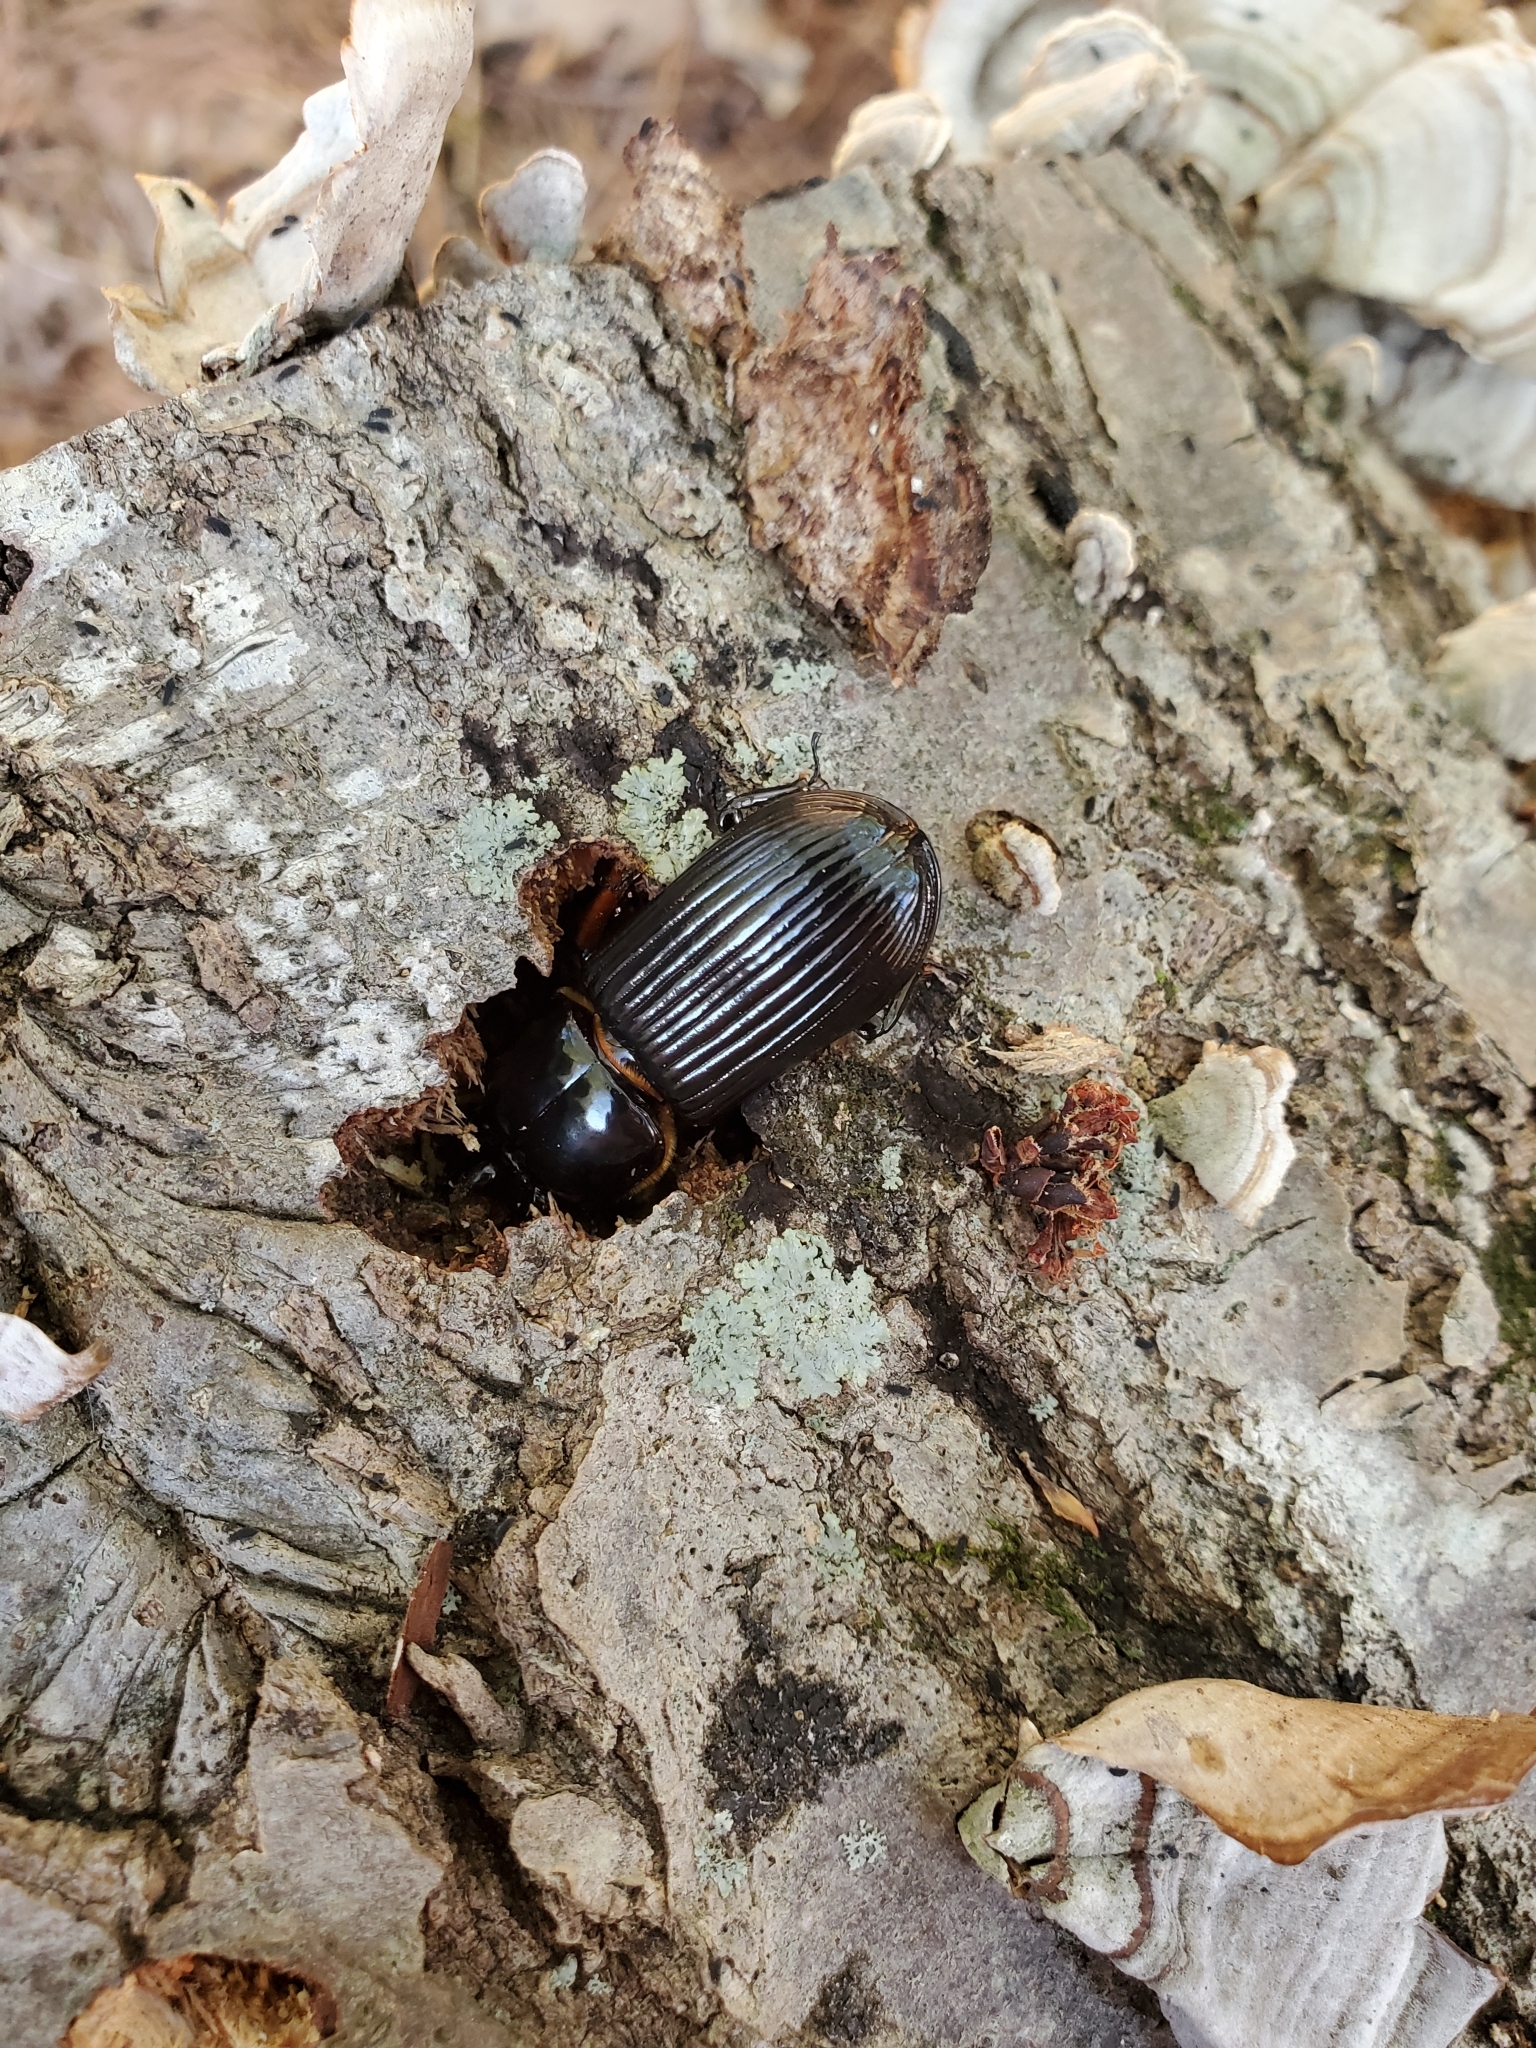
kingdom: Animalia
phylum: Arthropoda
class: Insecta
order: Coleoptera
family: Passalidae
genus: Odontotaenius
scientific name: Odontotaenius disjunctus
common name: Patent leather beetle
